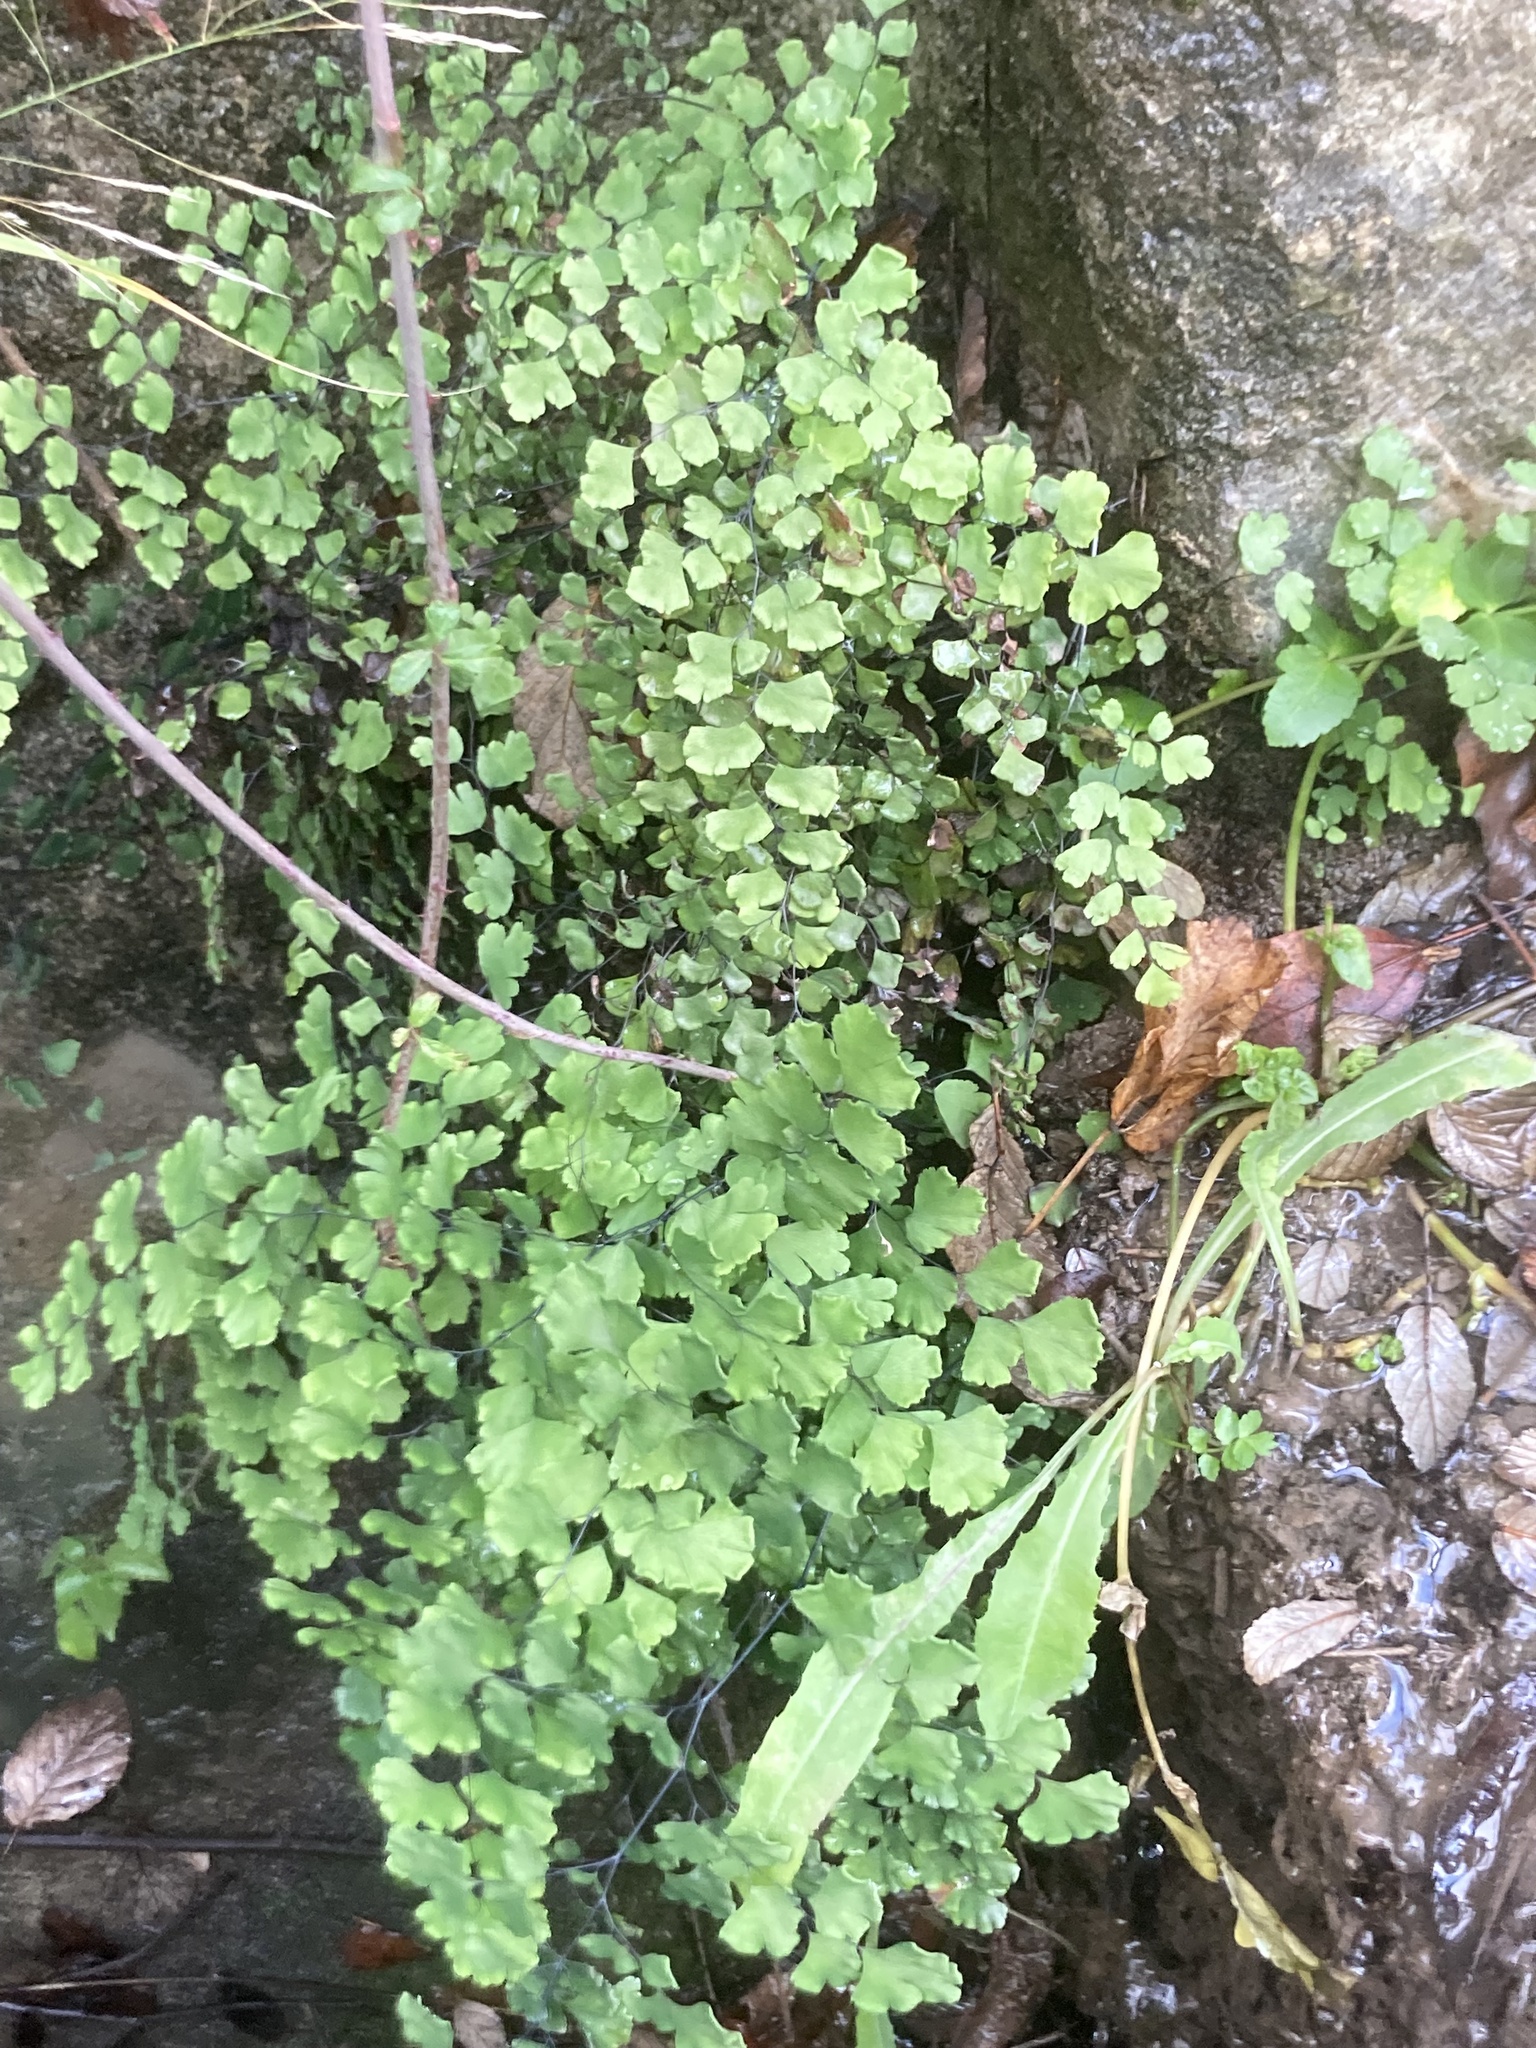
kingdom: Plantae
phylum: Tracheophyta
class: Polypodiopsida
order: Polypodiales
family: Pteridaceae
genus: Adiantum
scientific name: Adiantum capillus-veneris
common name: Maidenhair fern
